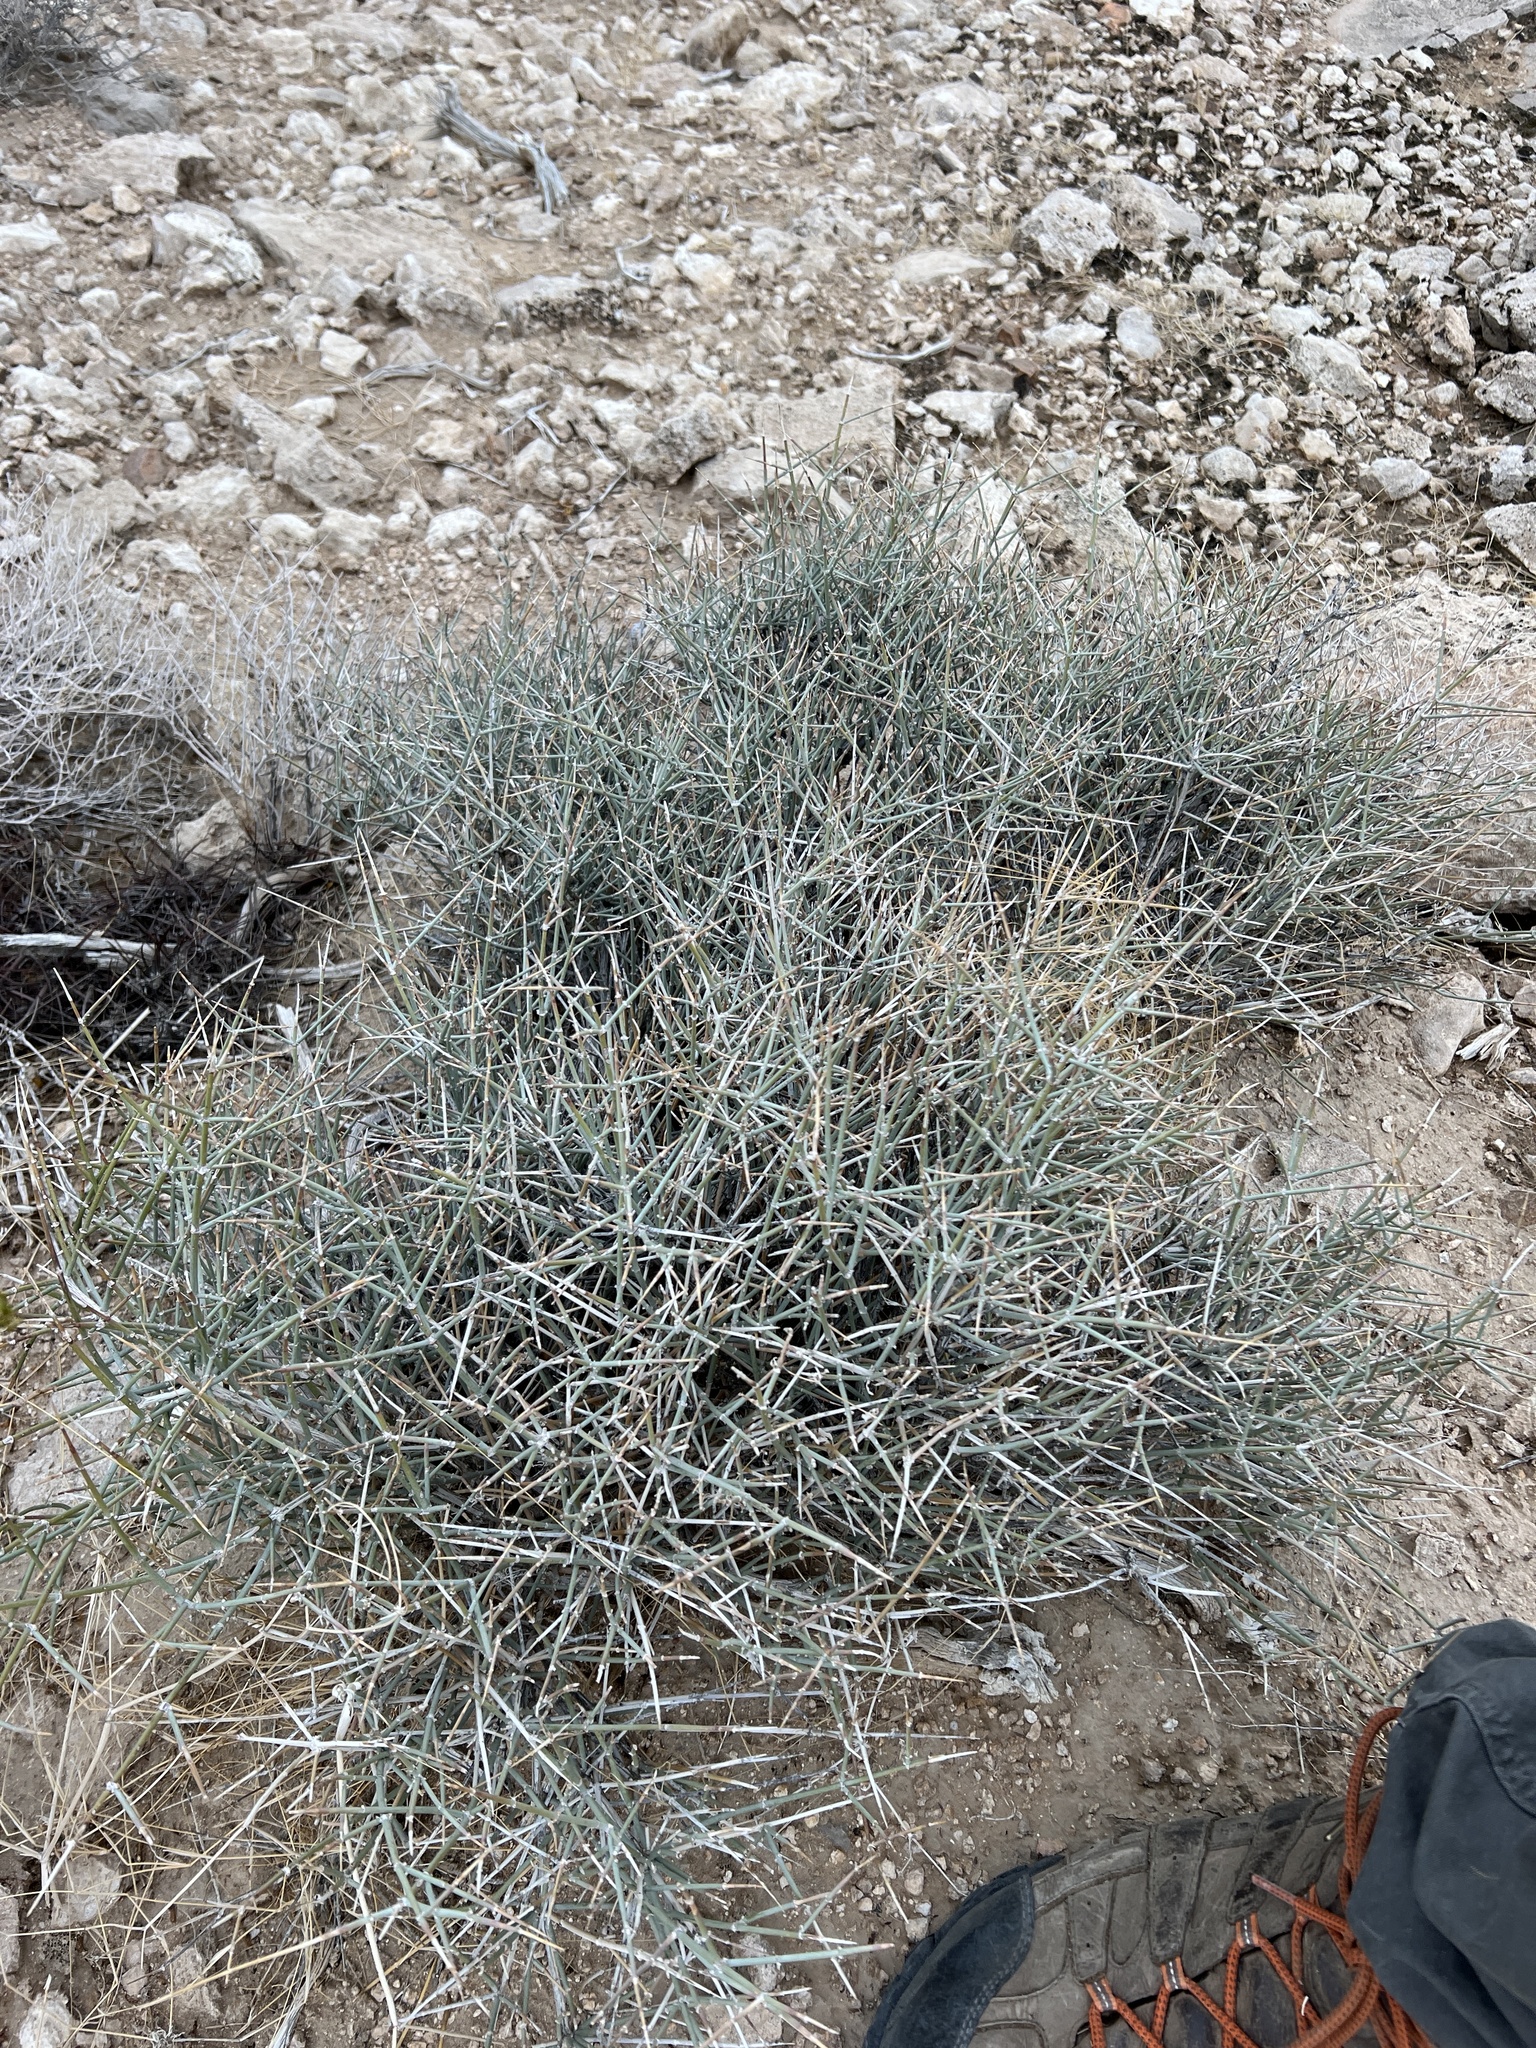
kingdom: Plantae
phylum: Tracheophyta
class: Gnetopsida
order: Ephedrales
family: Ephedraceae
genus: Ephedra
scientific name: Ephedra nevadensis
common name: Gray ephedra
